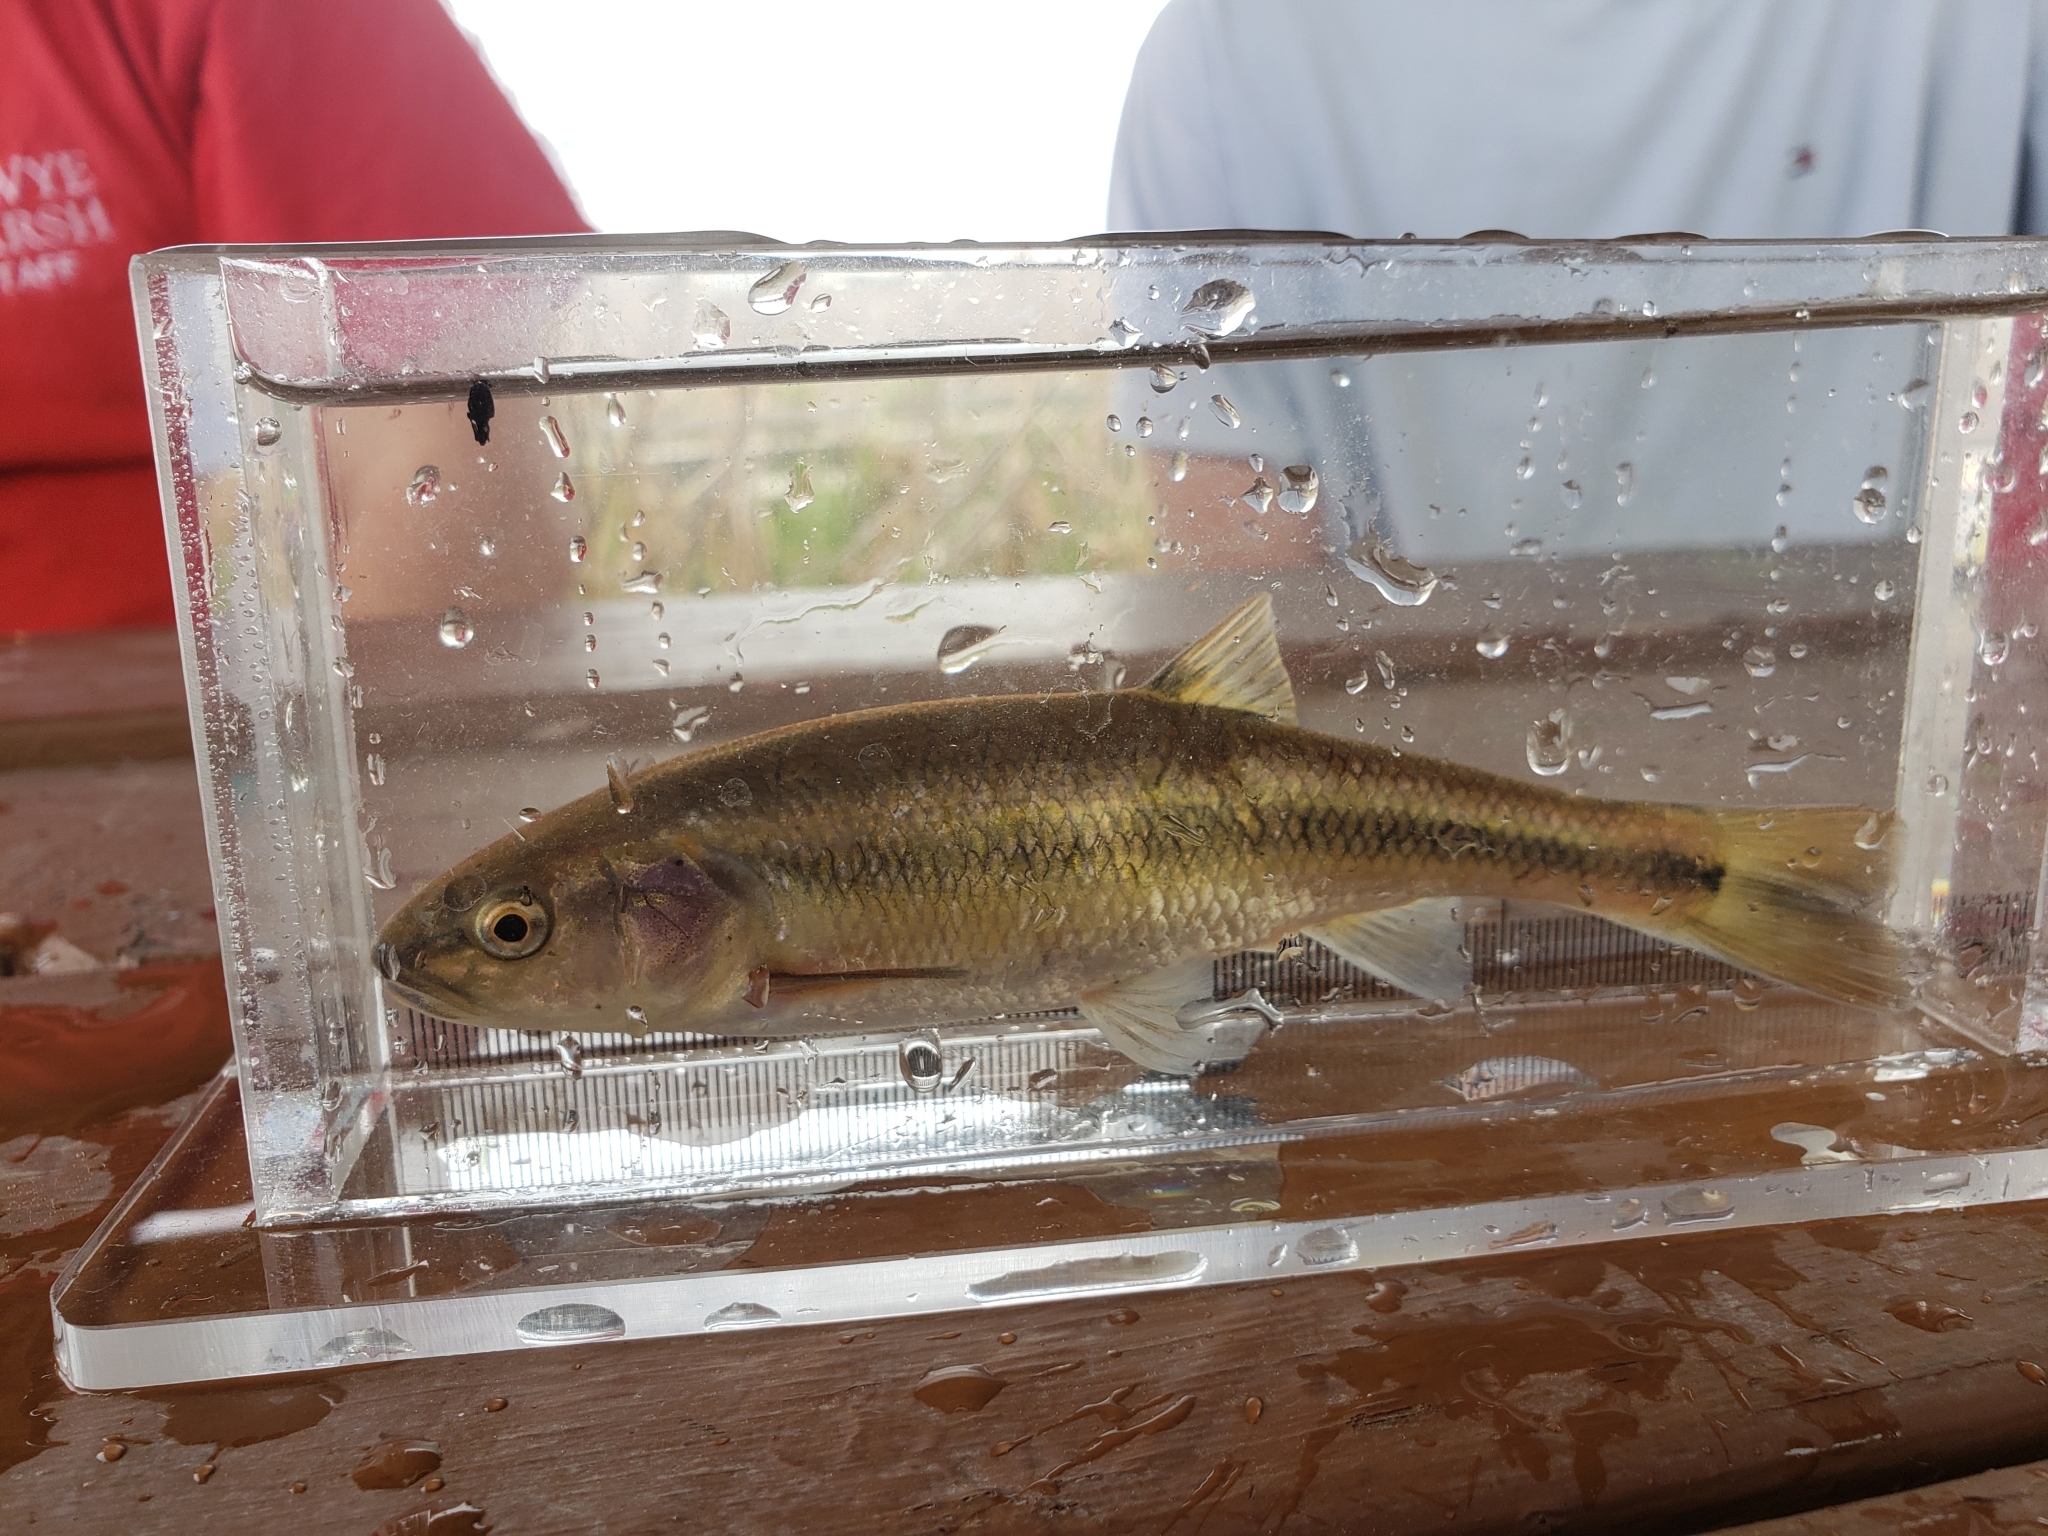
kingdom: Animalia
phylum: Chordata
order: Cypriniformes
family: Cyprinidae
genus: Semotilus
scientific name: Semotilus atromaculatus
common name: Creek chub
